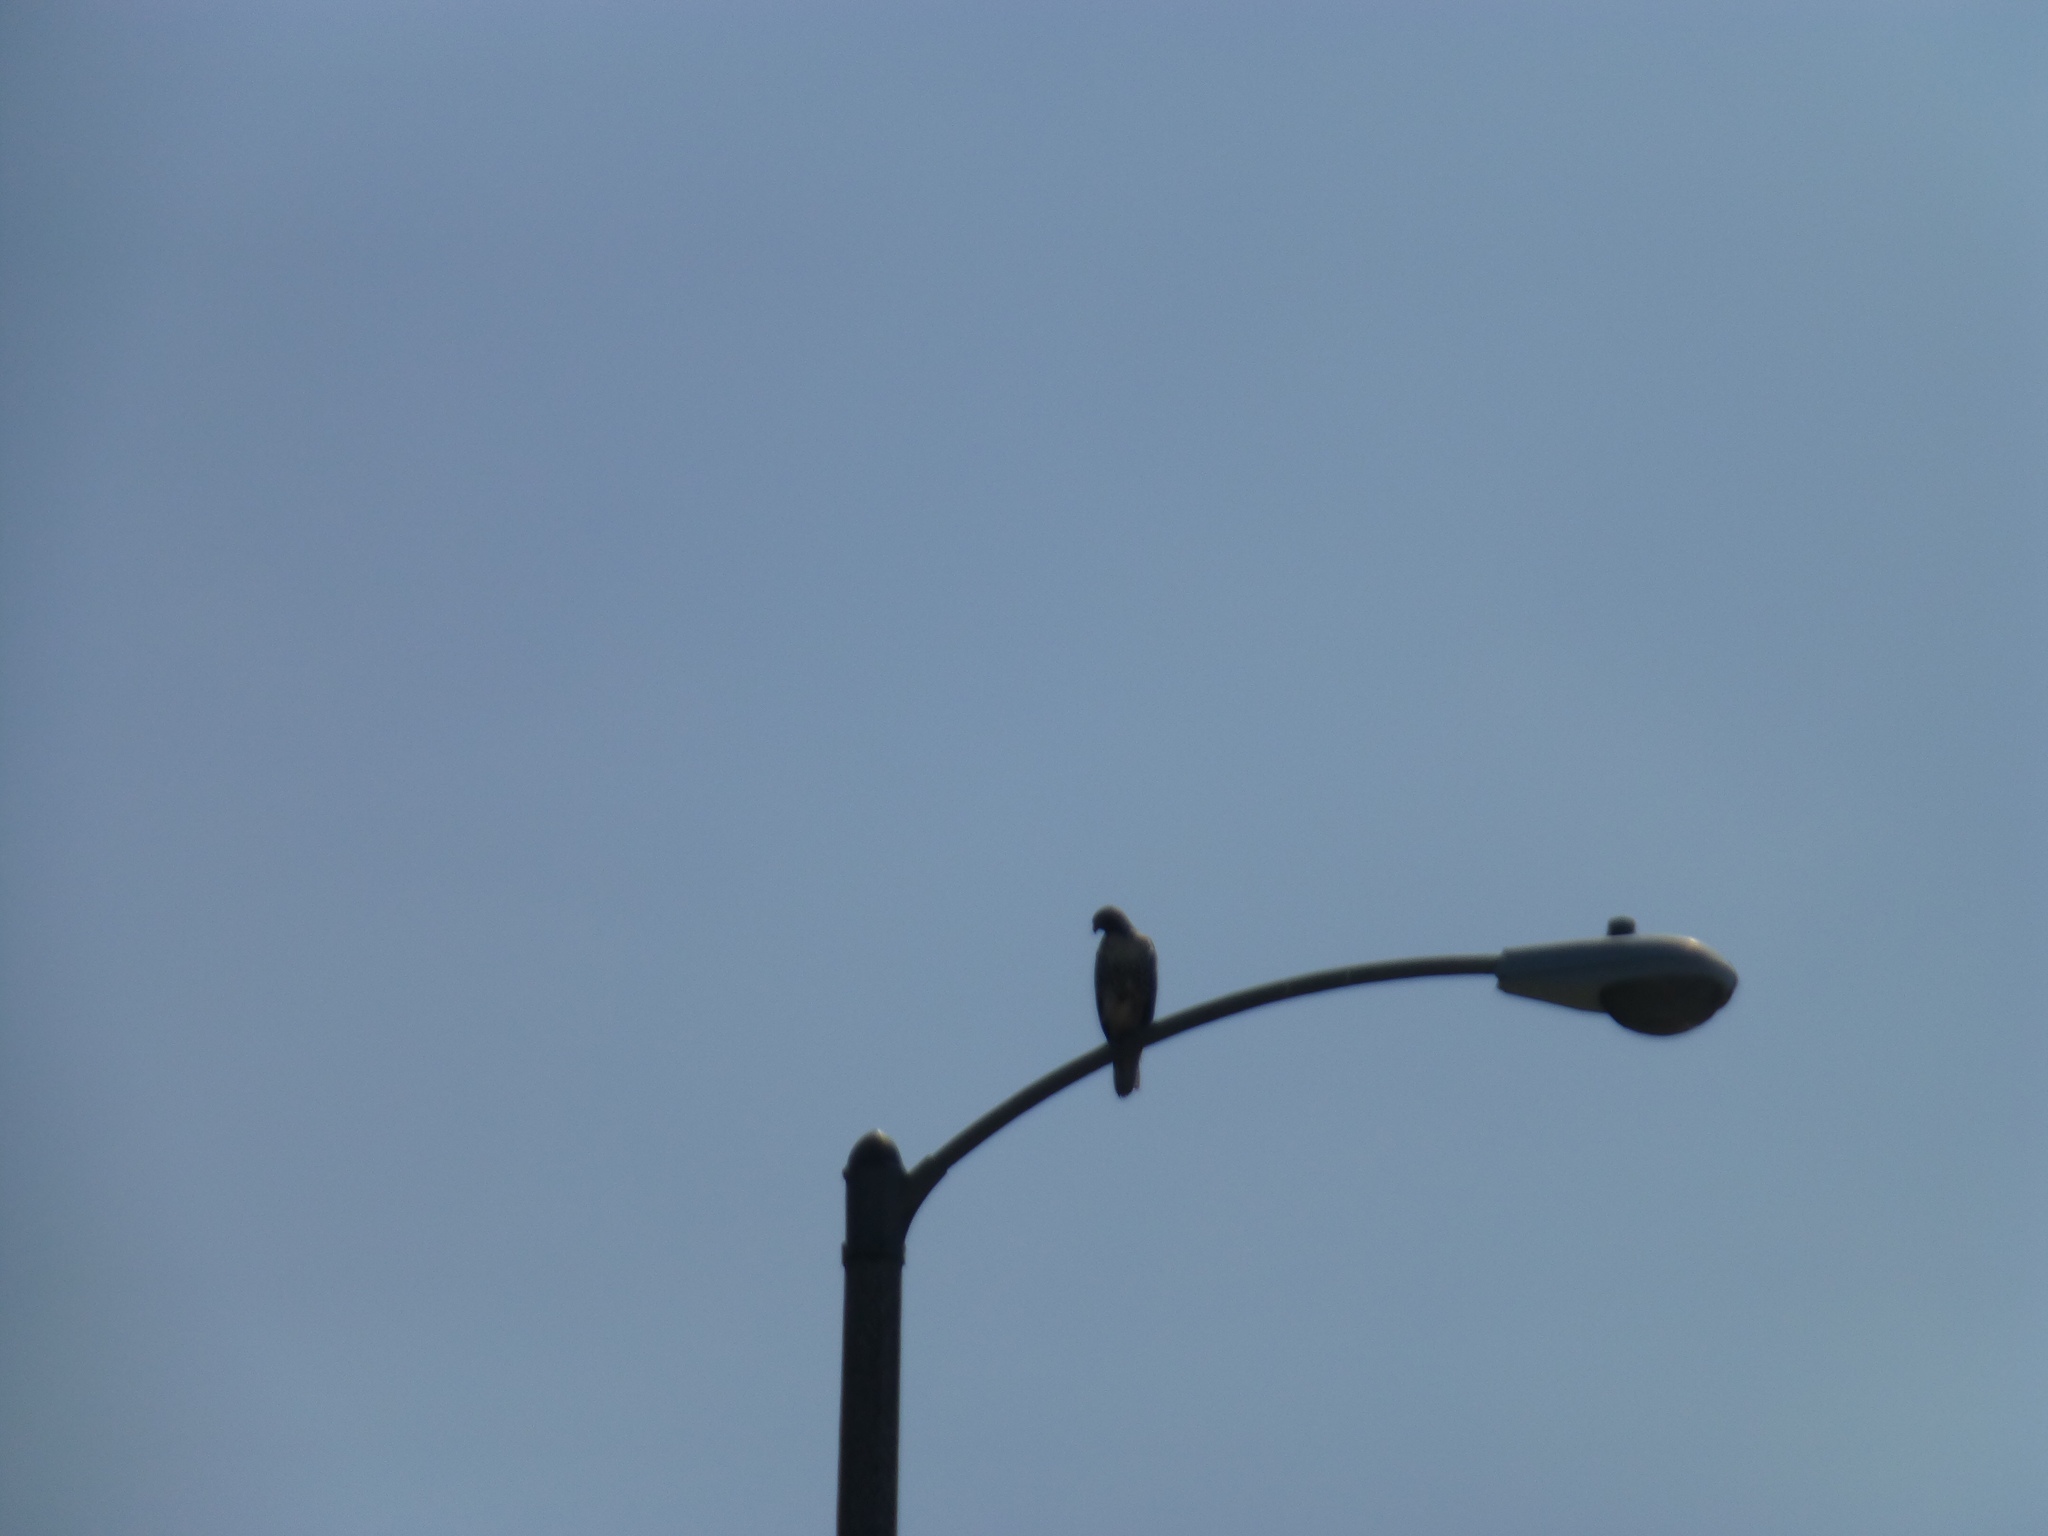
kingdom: Animalia
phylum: Chordata
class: Aves
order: Accipitriformes
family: Accipitridae
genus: Buteo
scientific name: Buteo jamaicensis
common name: Red-tailed hawk
